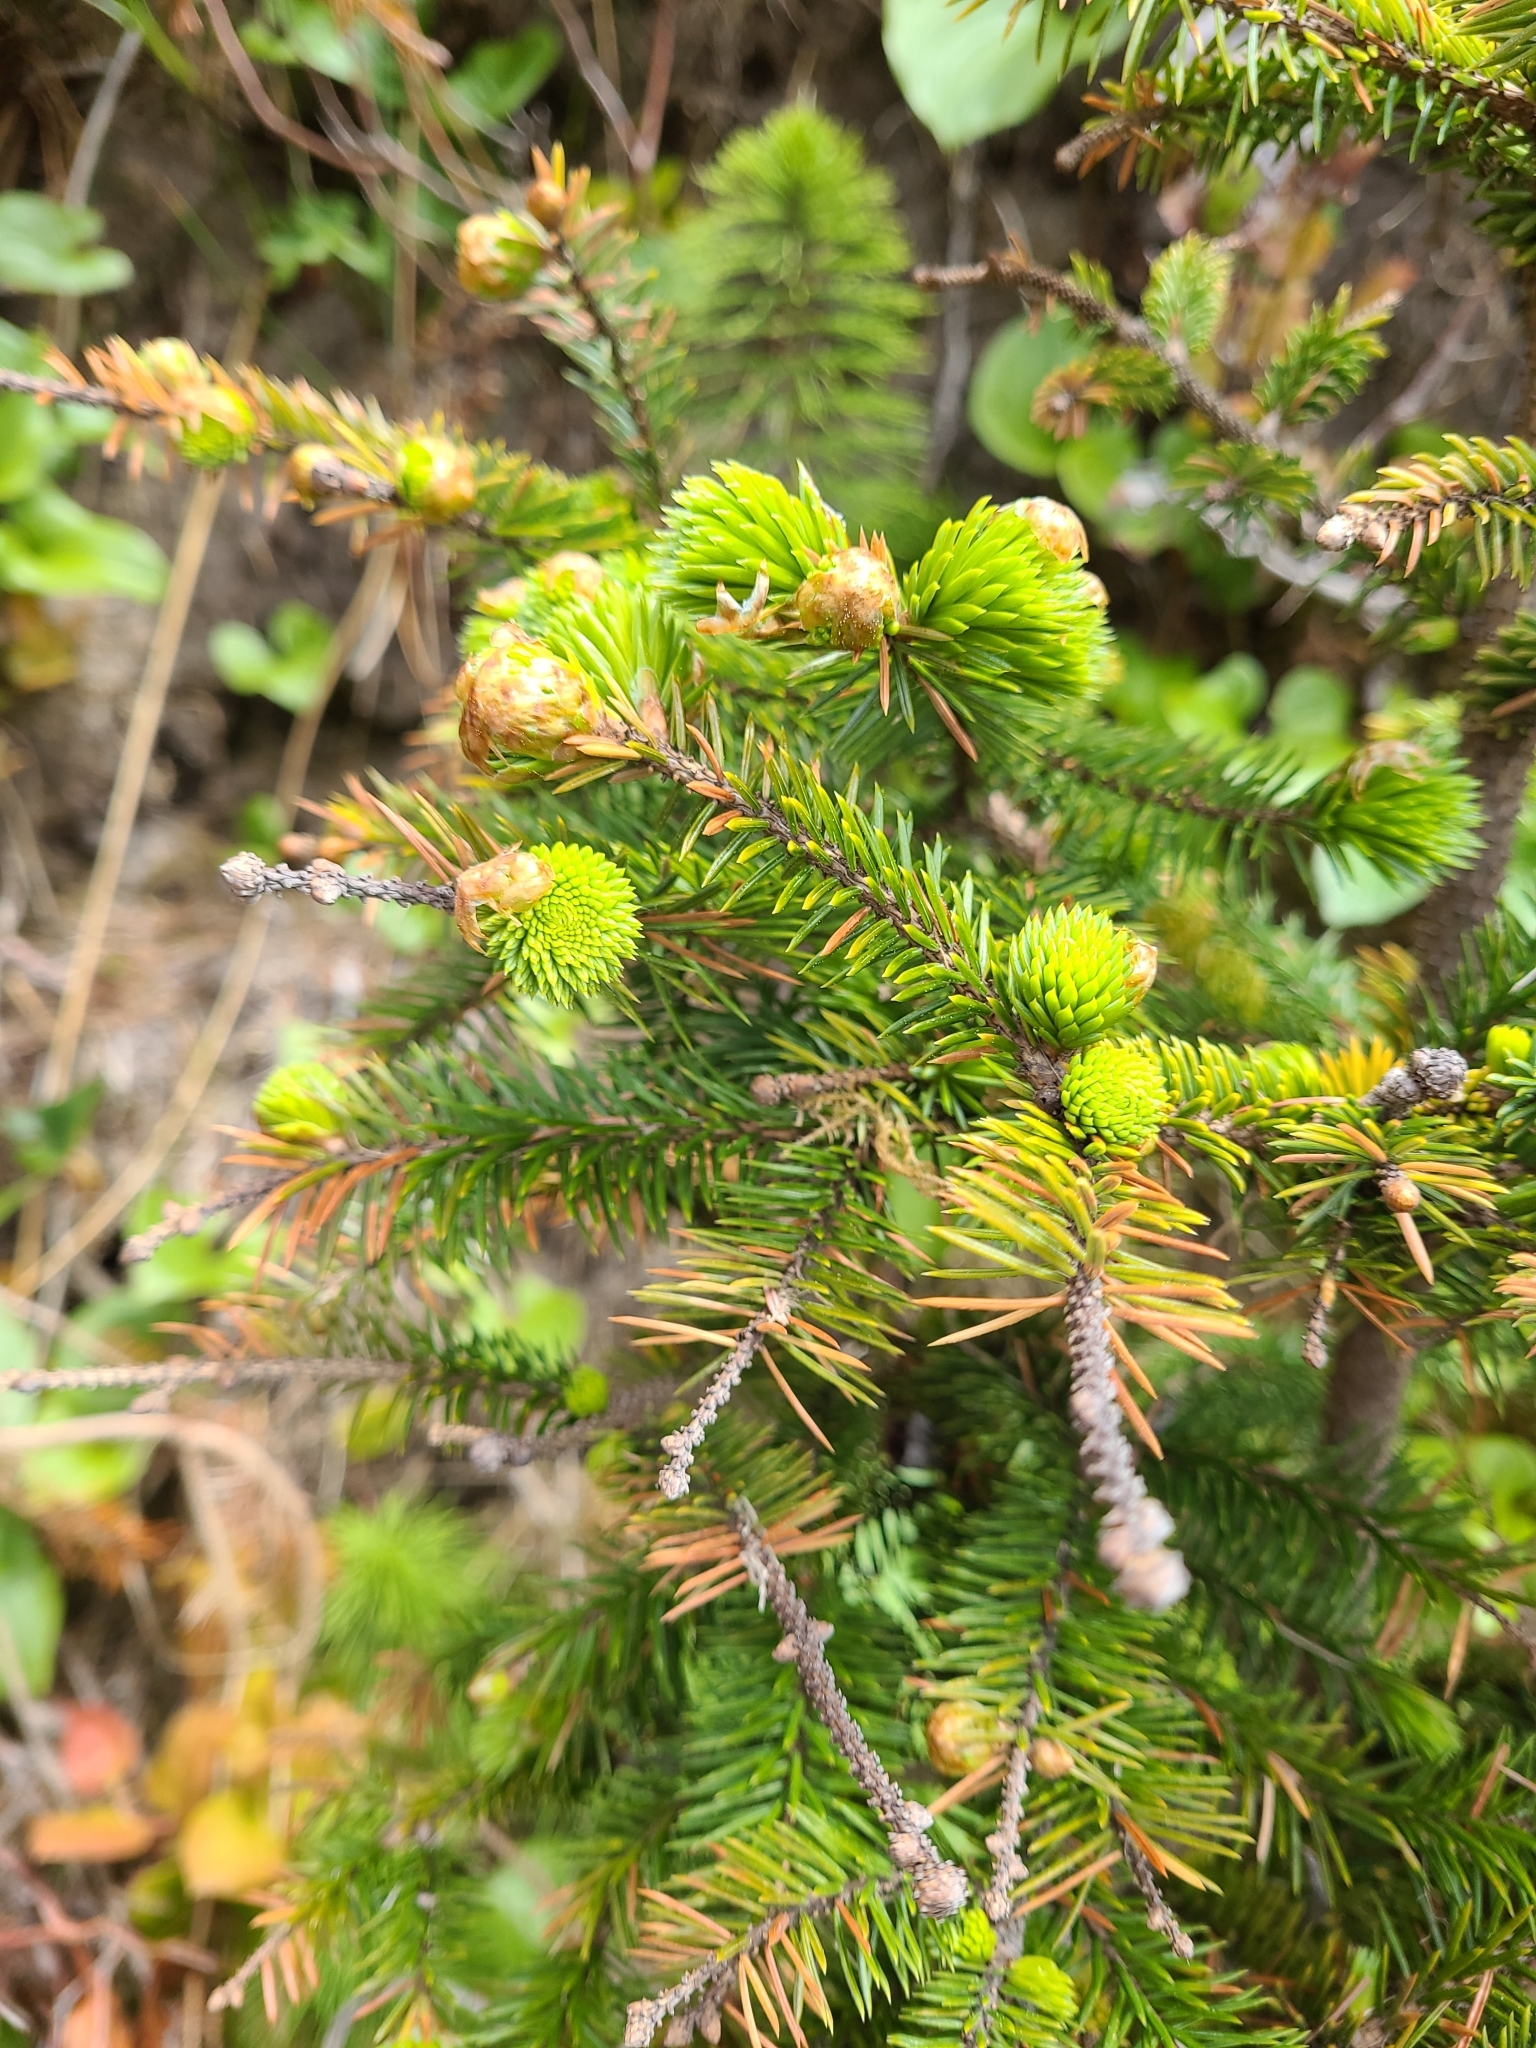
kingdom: Plantae
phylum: Tracheophyta
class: Pinopsida
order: Pinales
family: Pinaceae
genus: Picea
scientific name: Picea sitchensis
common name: Sitka spruce
